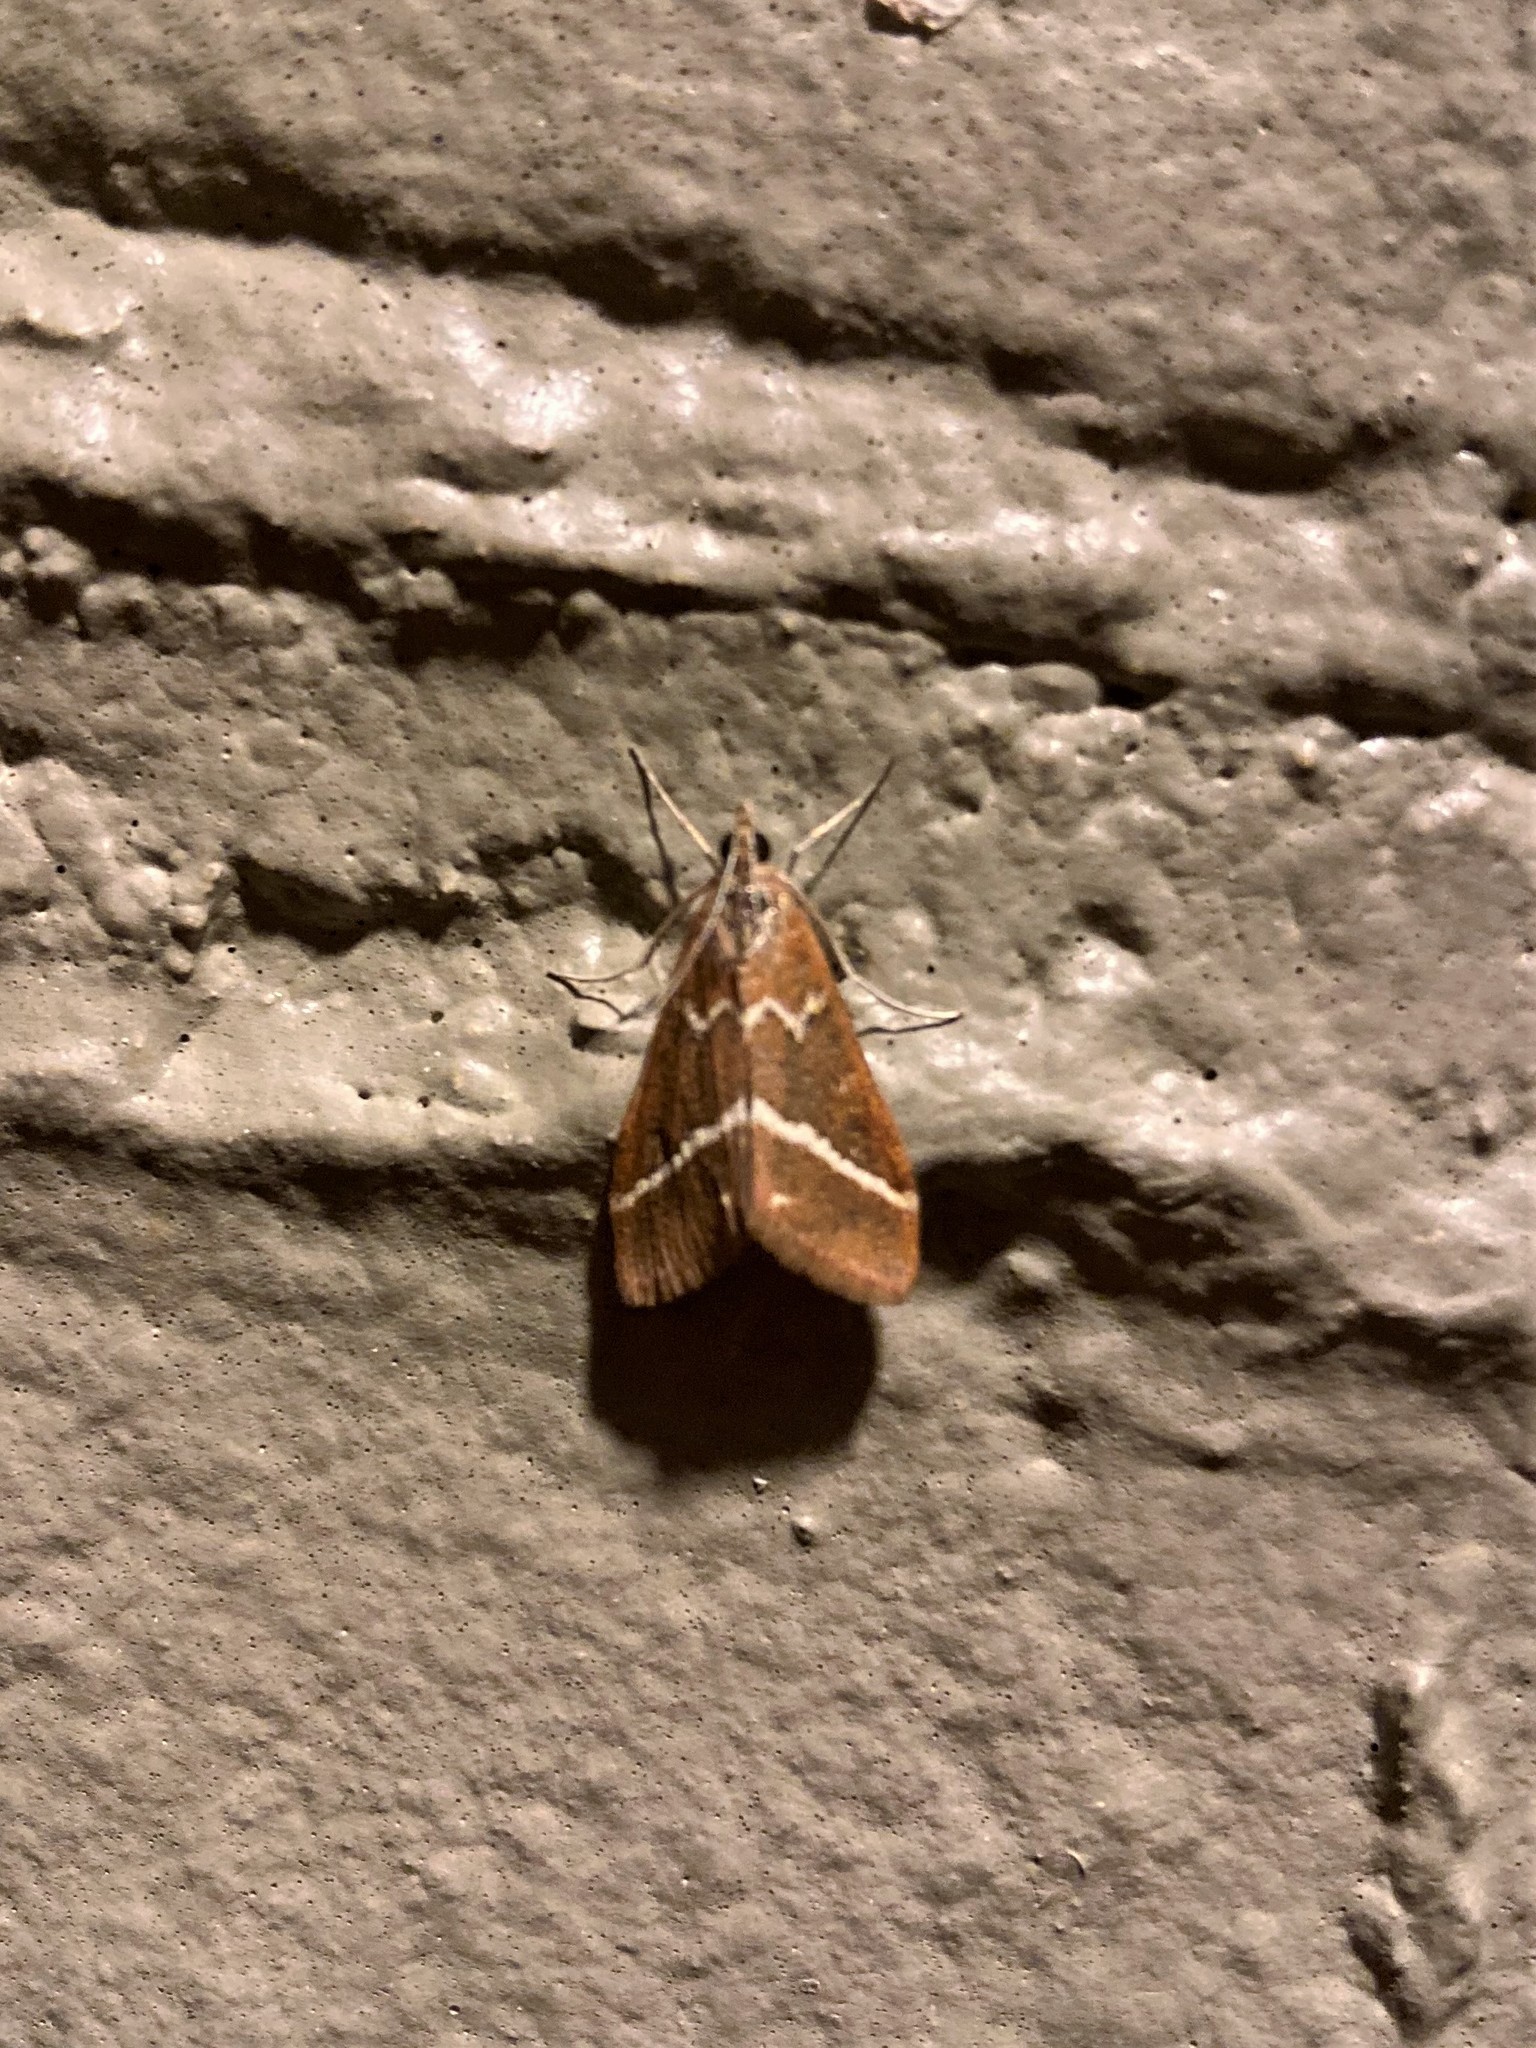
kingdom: Animalia
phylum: Arthropoda
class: Insecta
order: Lepidoptera
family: Crambidae
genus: Pyrausta
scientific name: Pyrausta volupialis
